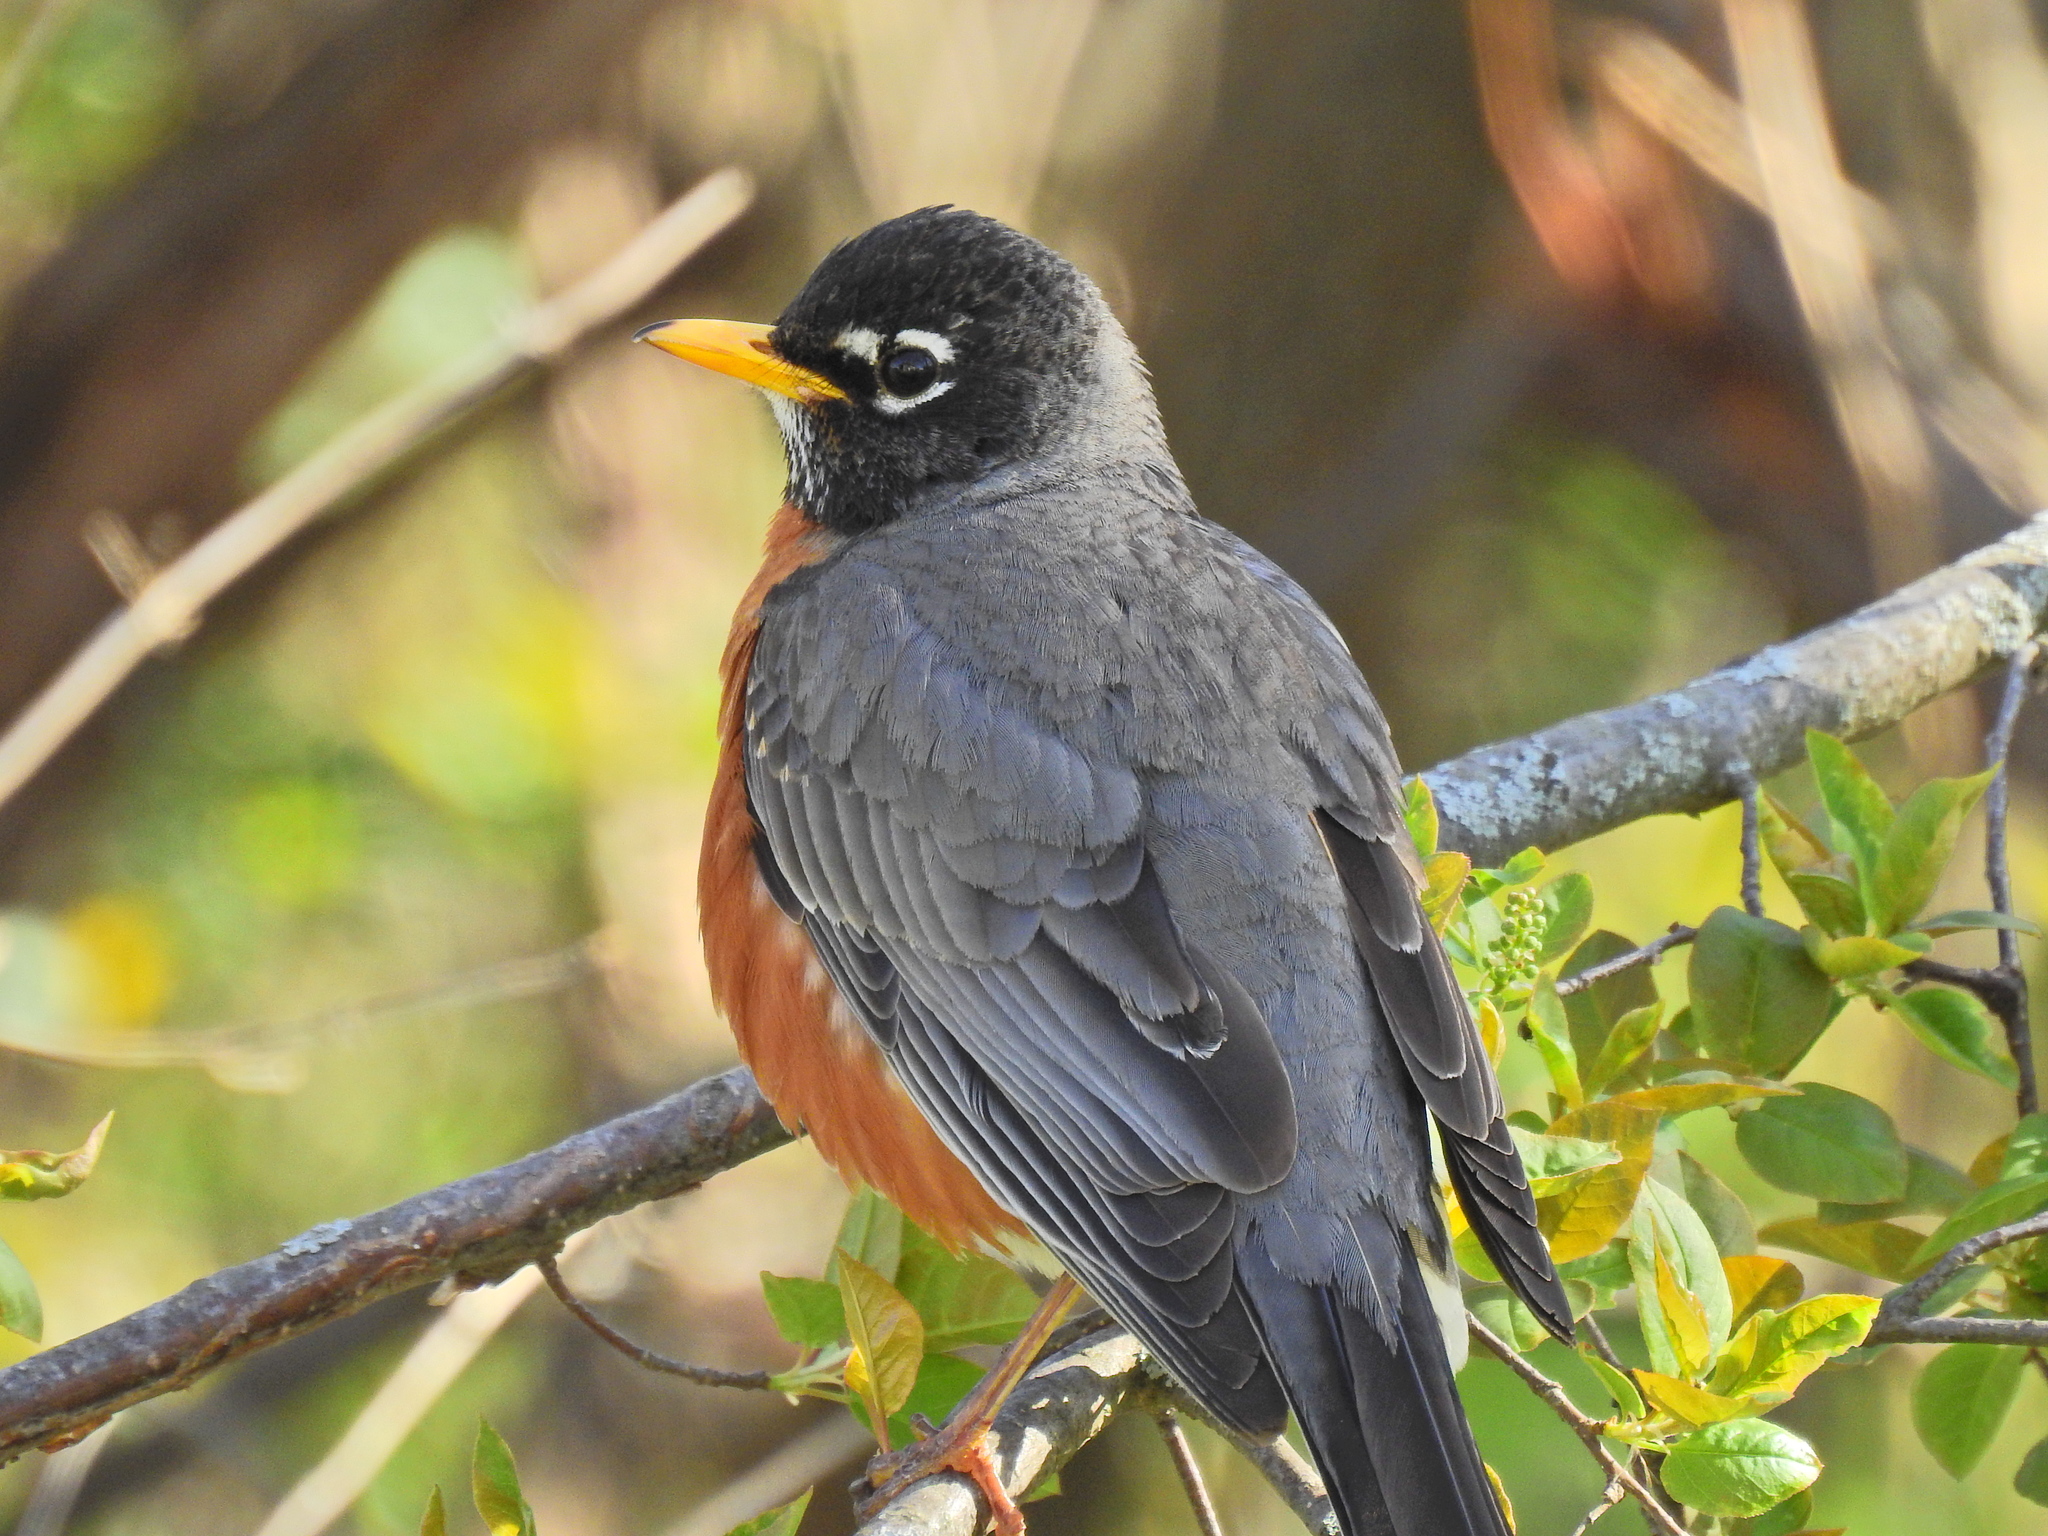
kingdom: Animalia
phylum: Chordata
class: Aves
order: Passeriformes
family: Turdidae
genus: Turdus
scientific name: Turdus migratorius
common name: American robin
